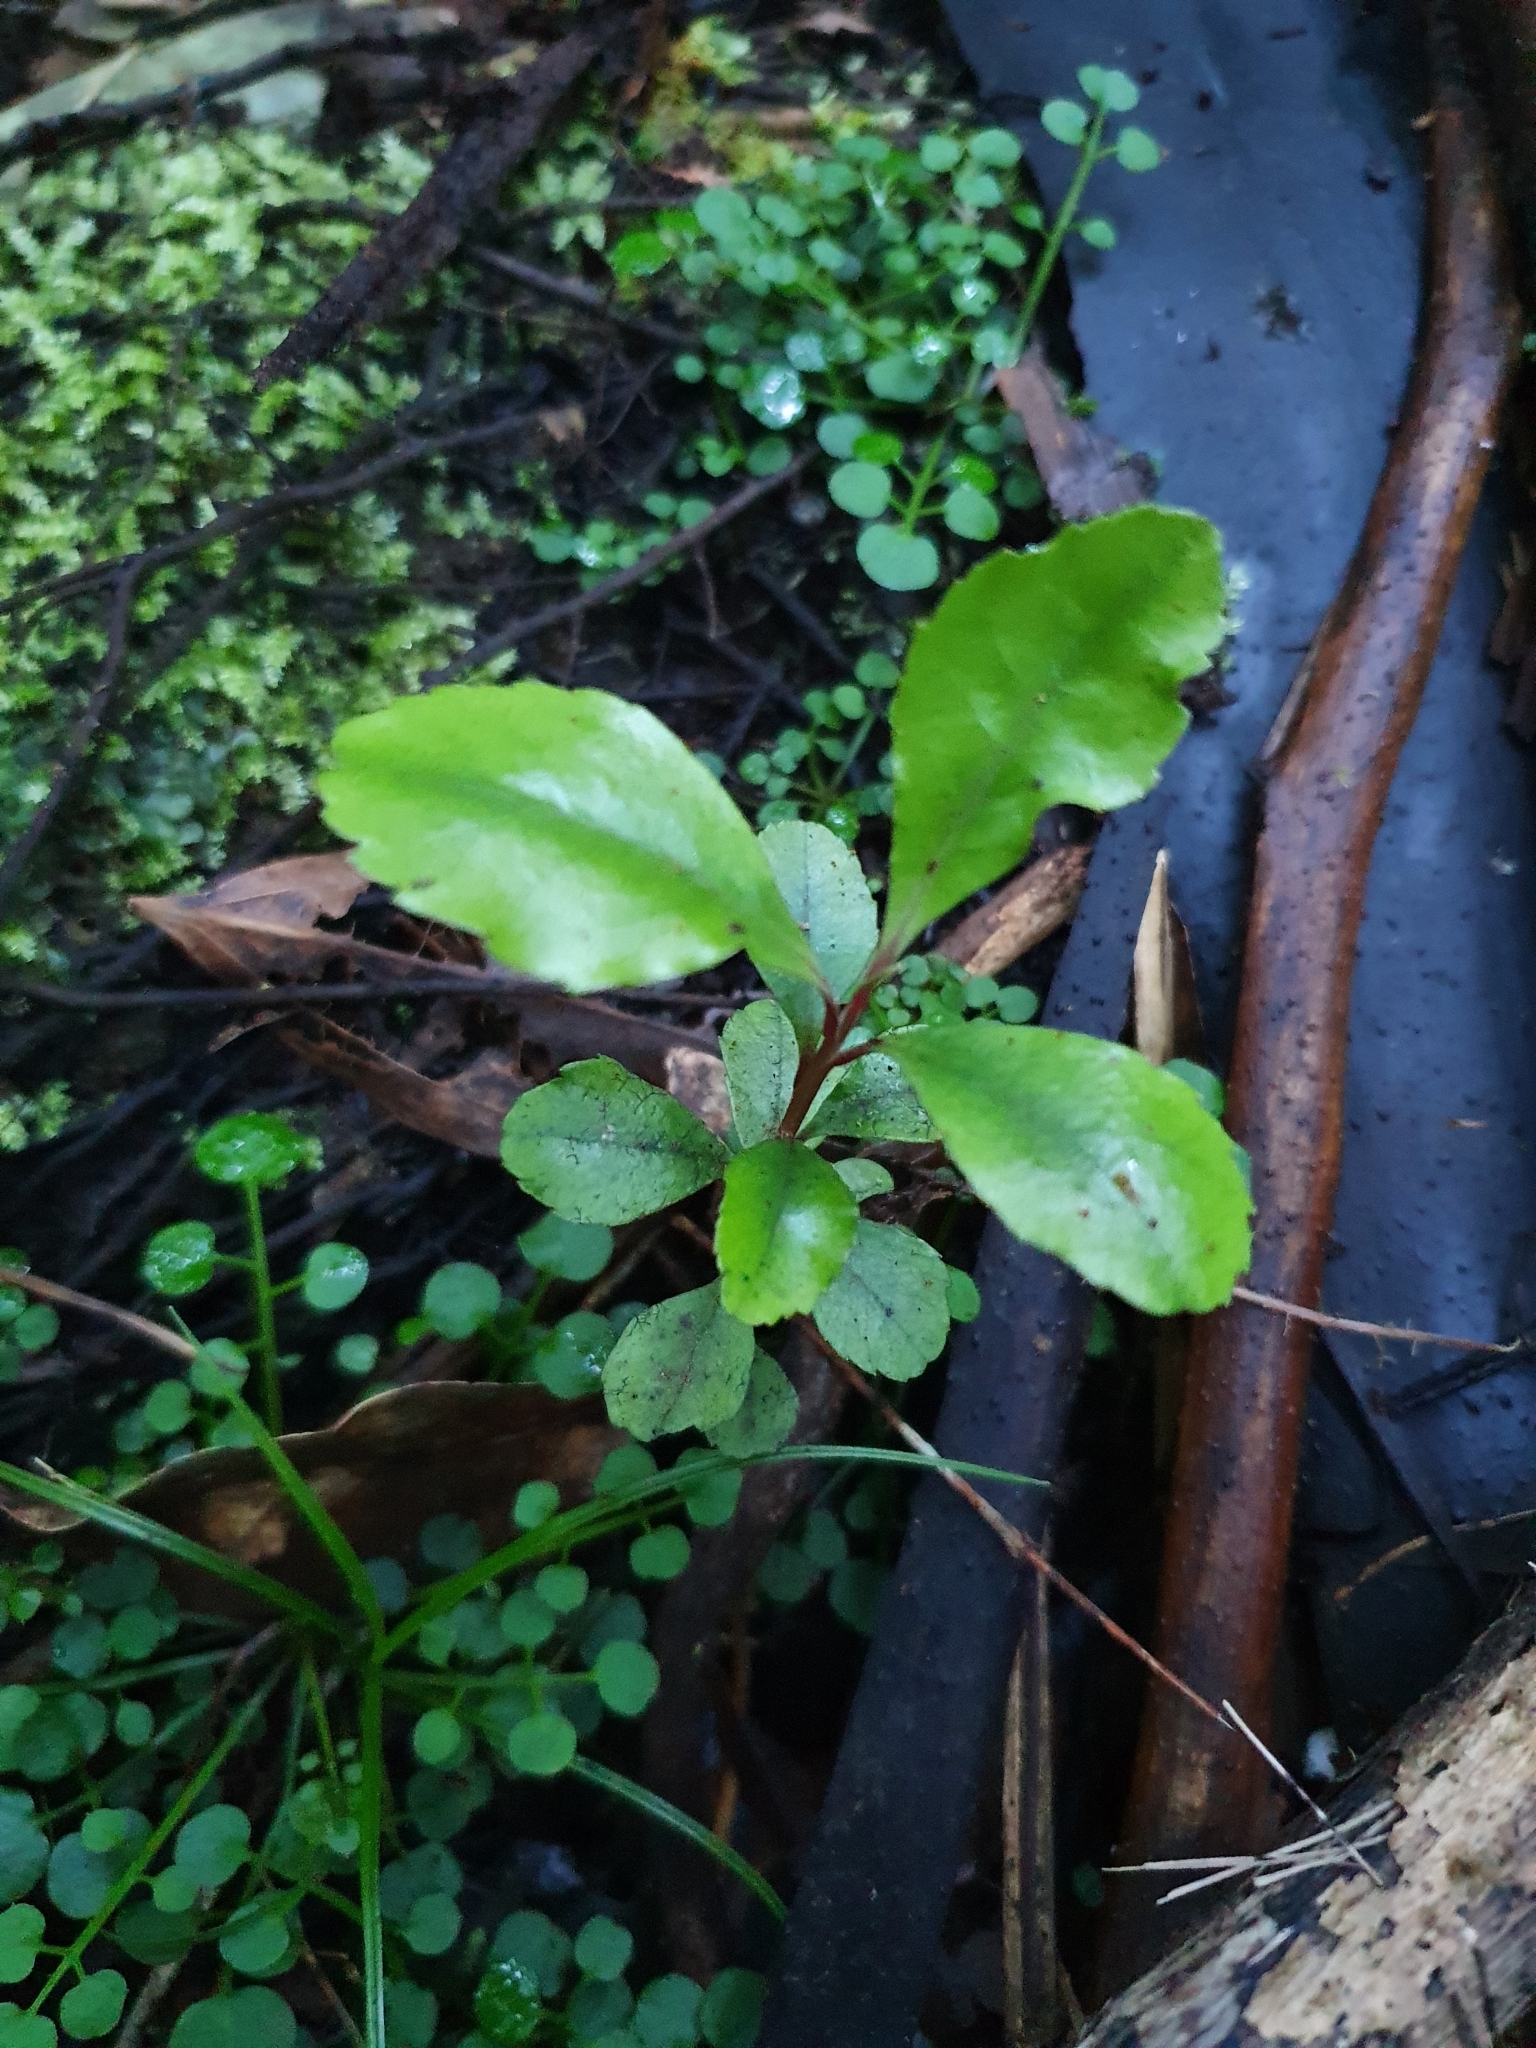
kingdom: Plantae
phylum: Tracheophyta
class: Magnoliopsida
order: Ericales
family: Primulaceae
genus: Myrsine
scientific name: Myrsine australis
